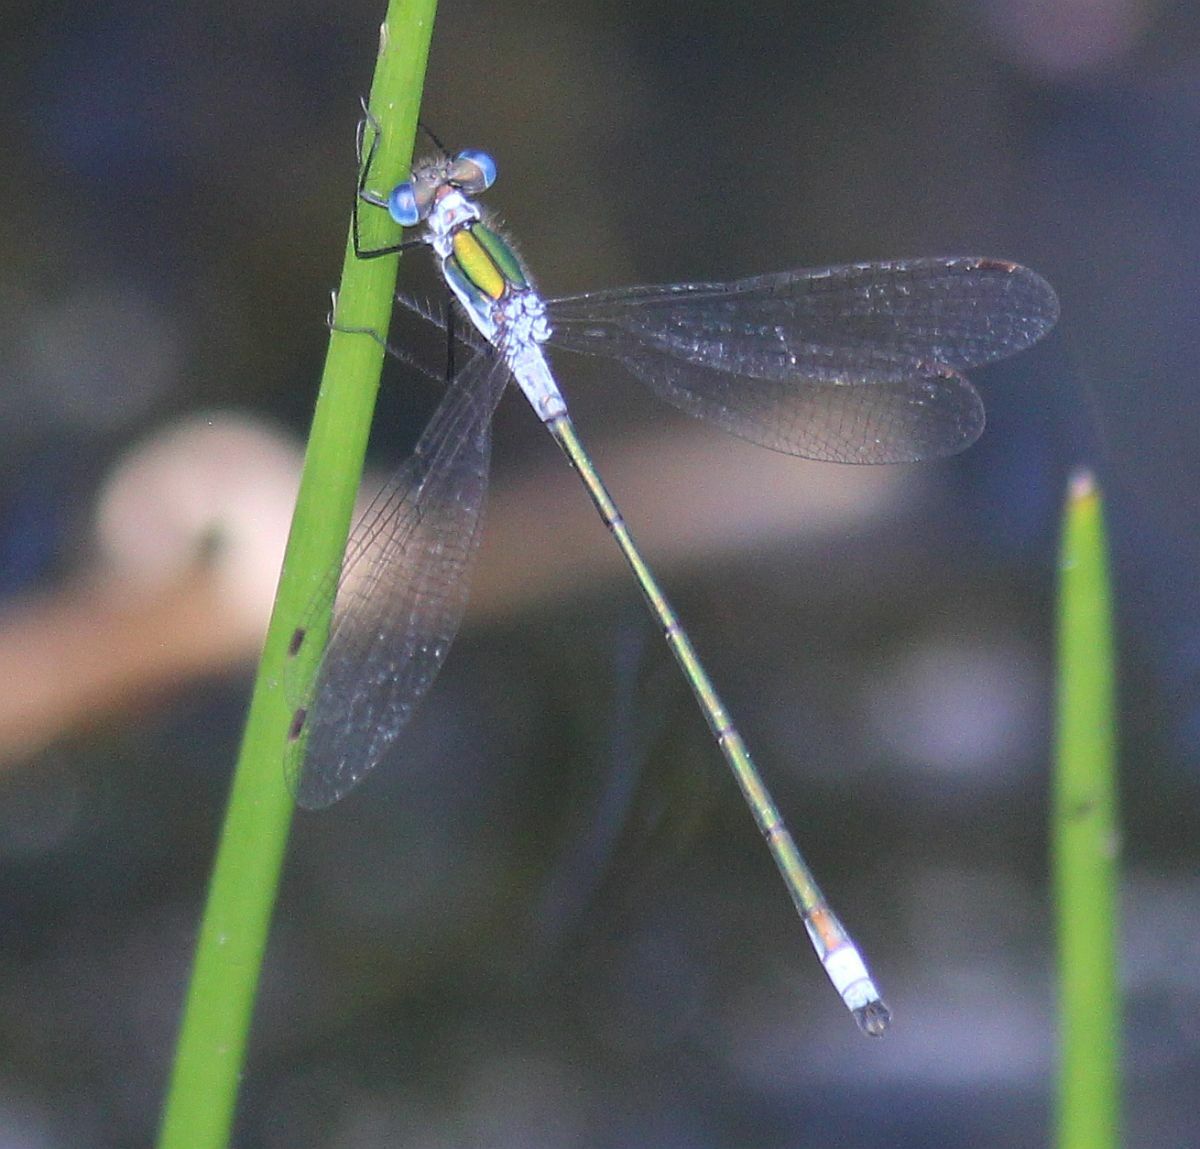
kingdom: Animalia
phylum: Arthropoda
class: Insecta
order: Odonata
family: Lestidae
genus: Lestes
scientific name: Lestes sponsa
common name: Common spreadwing
